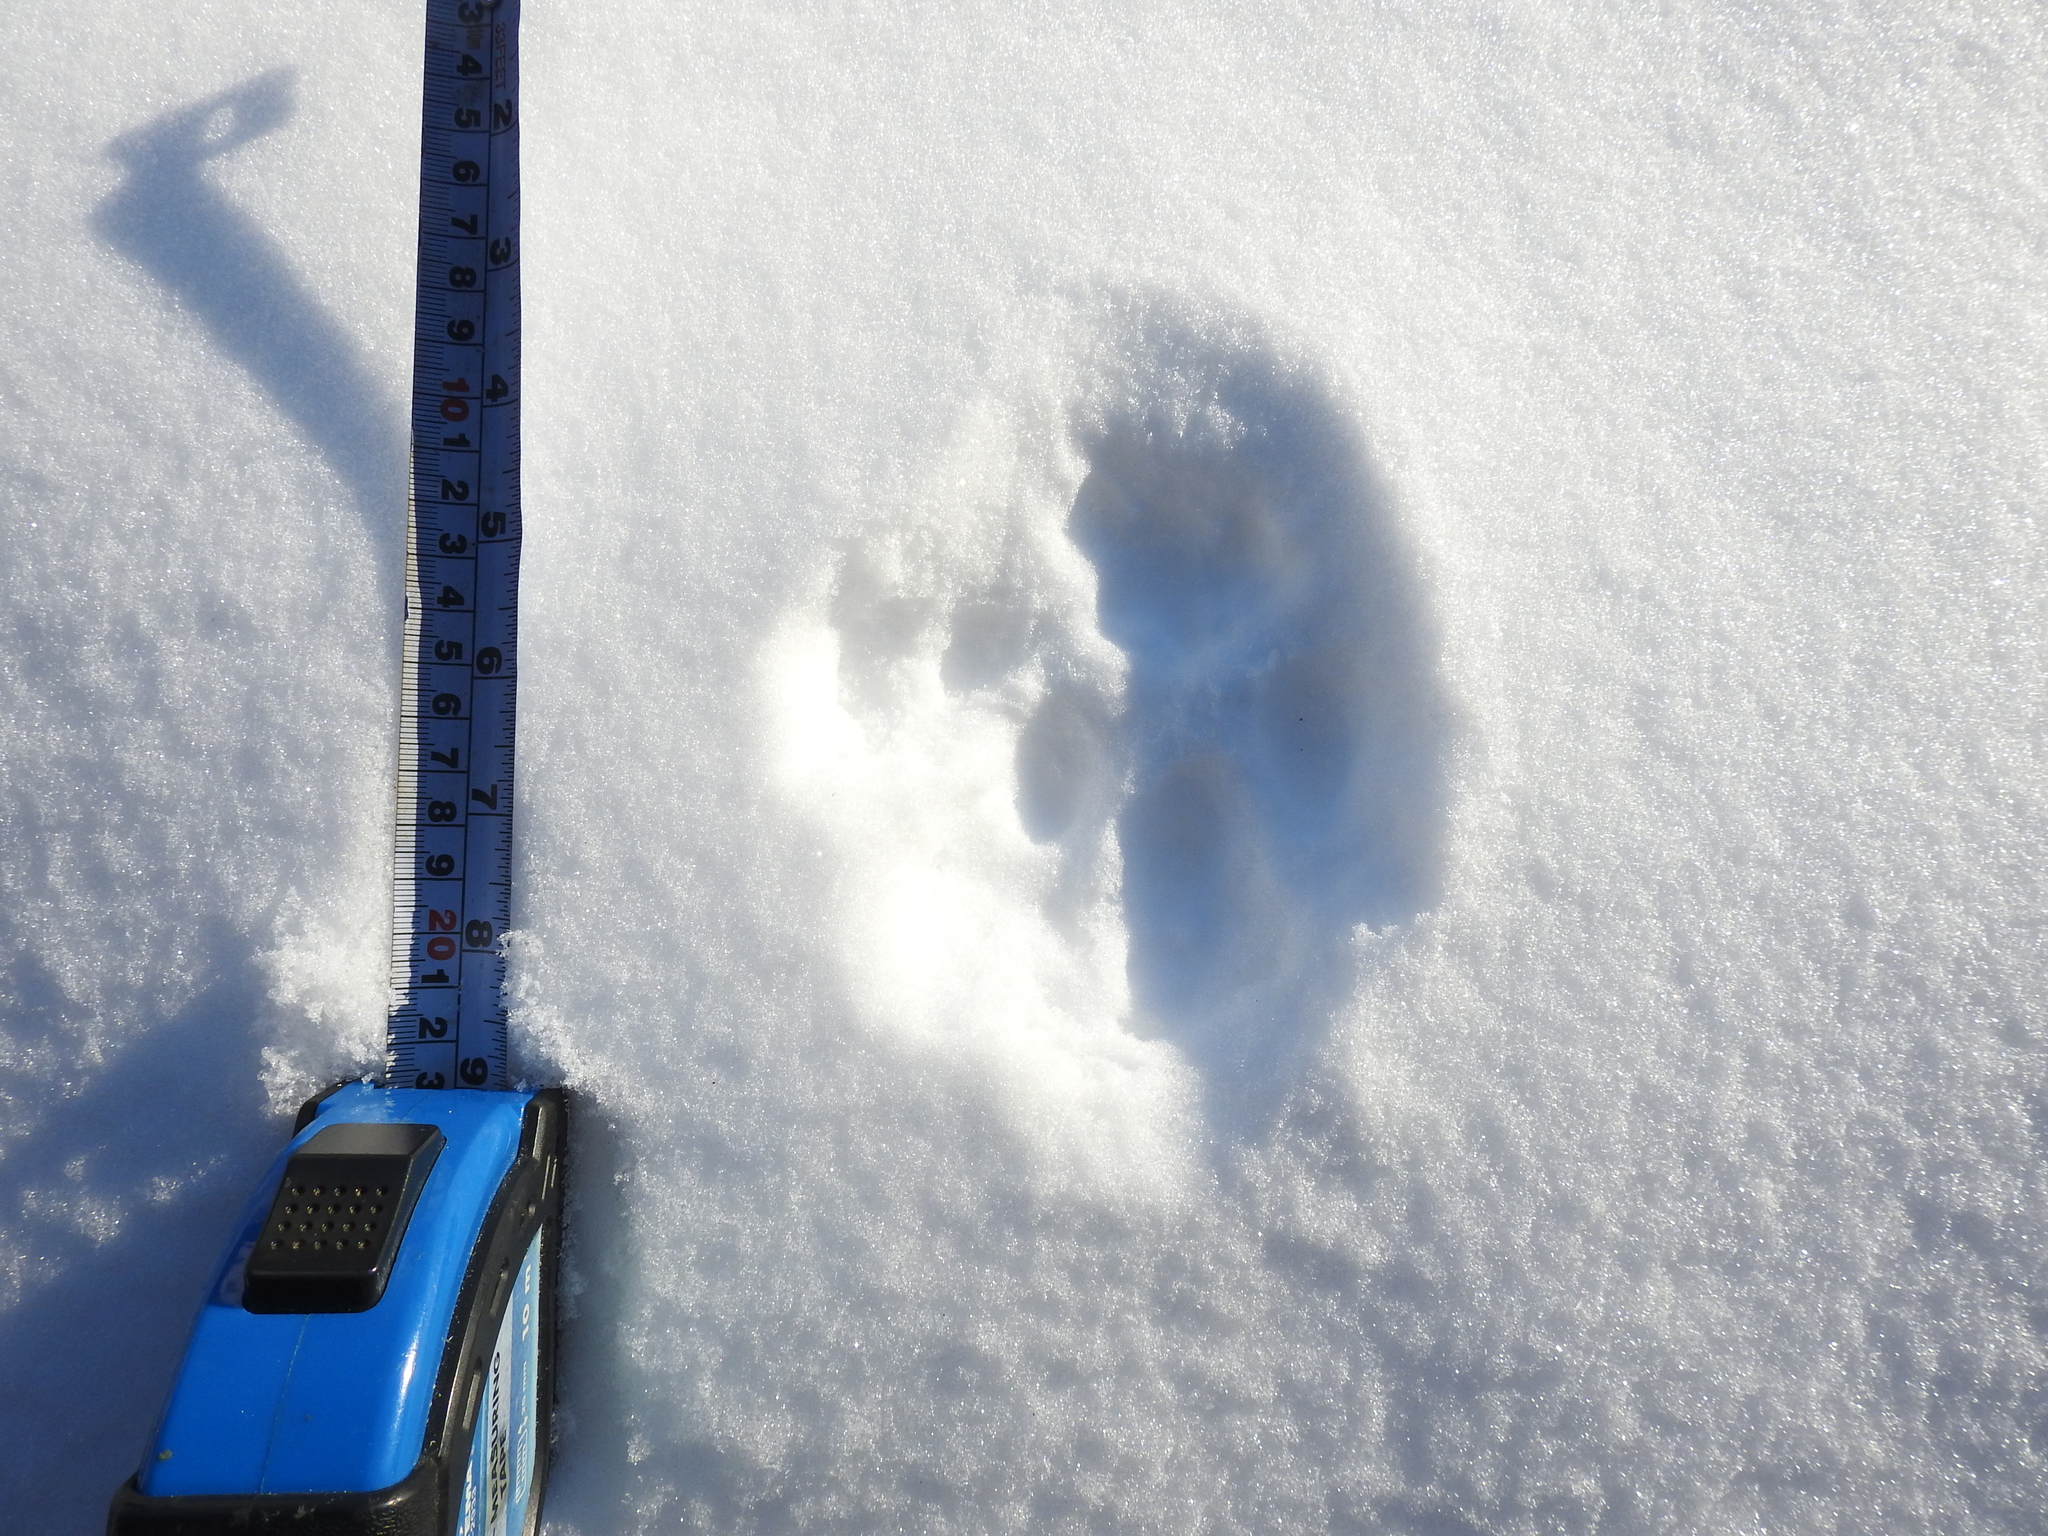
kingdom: Animalia
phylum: Chordata
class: Mammalia
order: Carnivora
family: Felidae
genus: Lynx
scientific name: Lynx lynx
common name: Eurasian lynx
